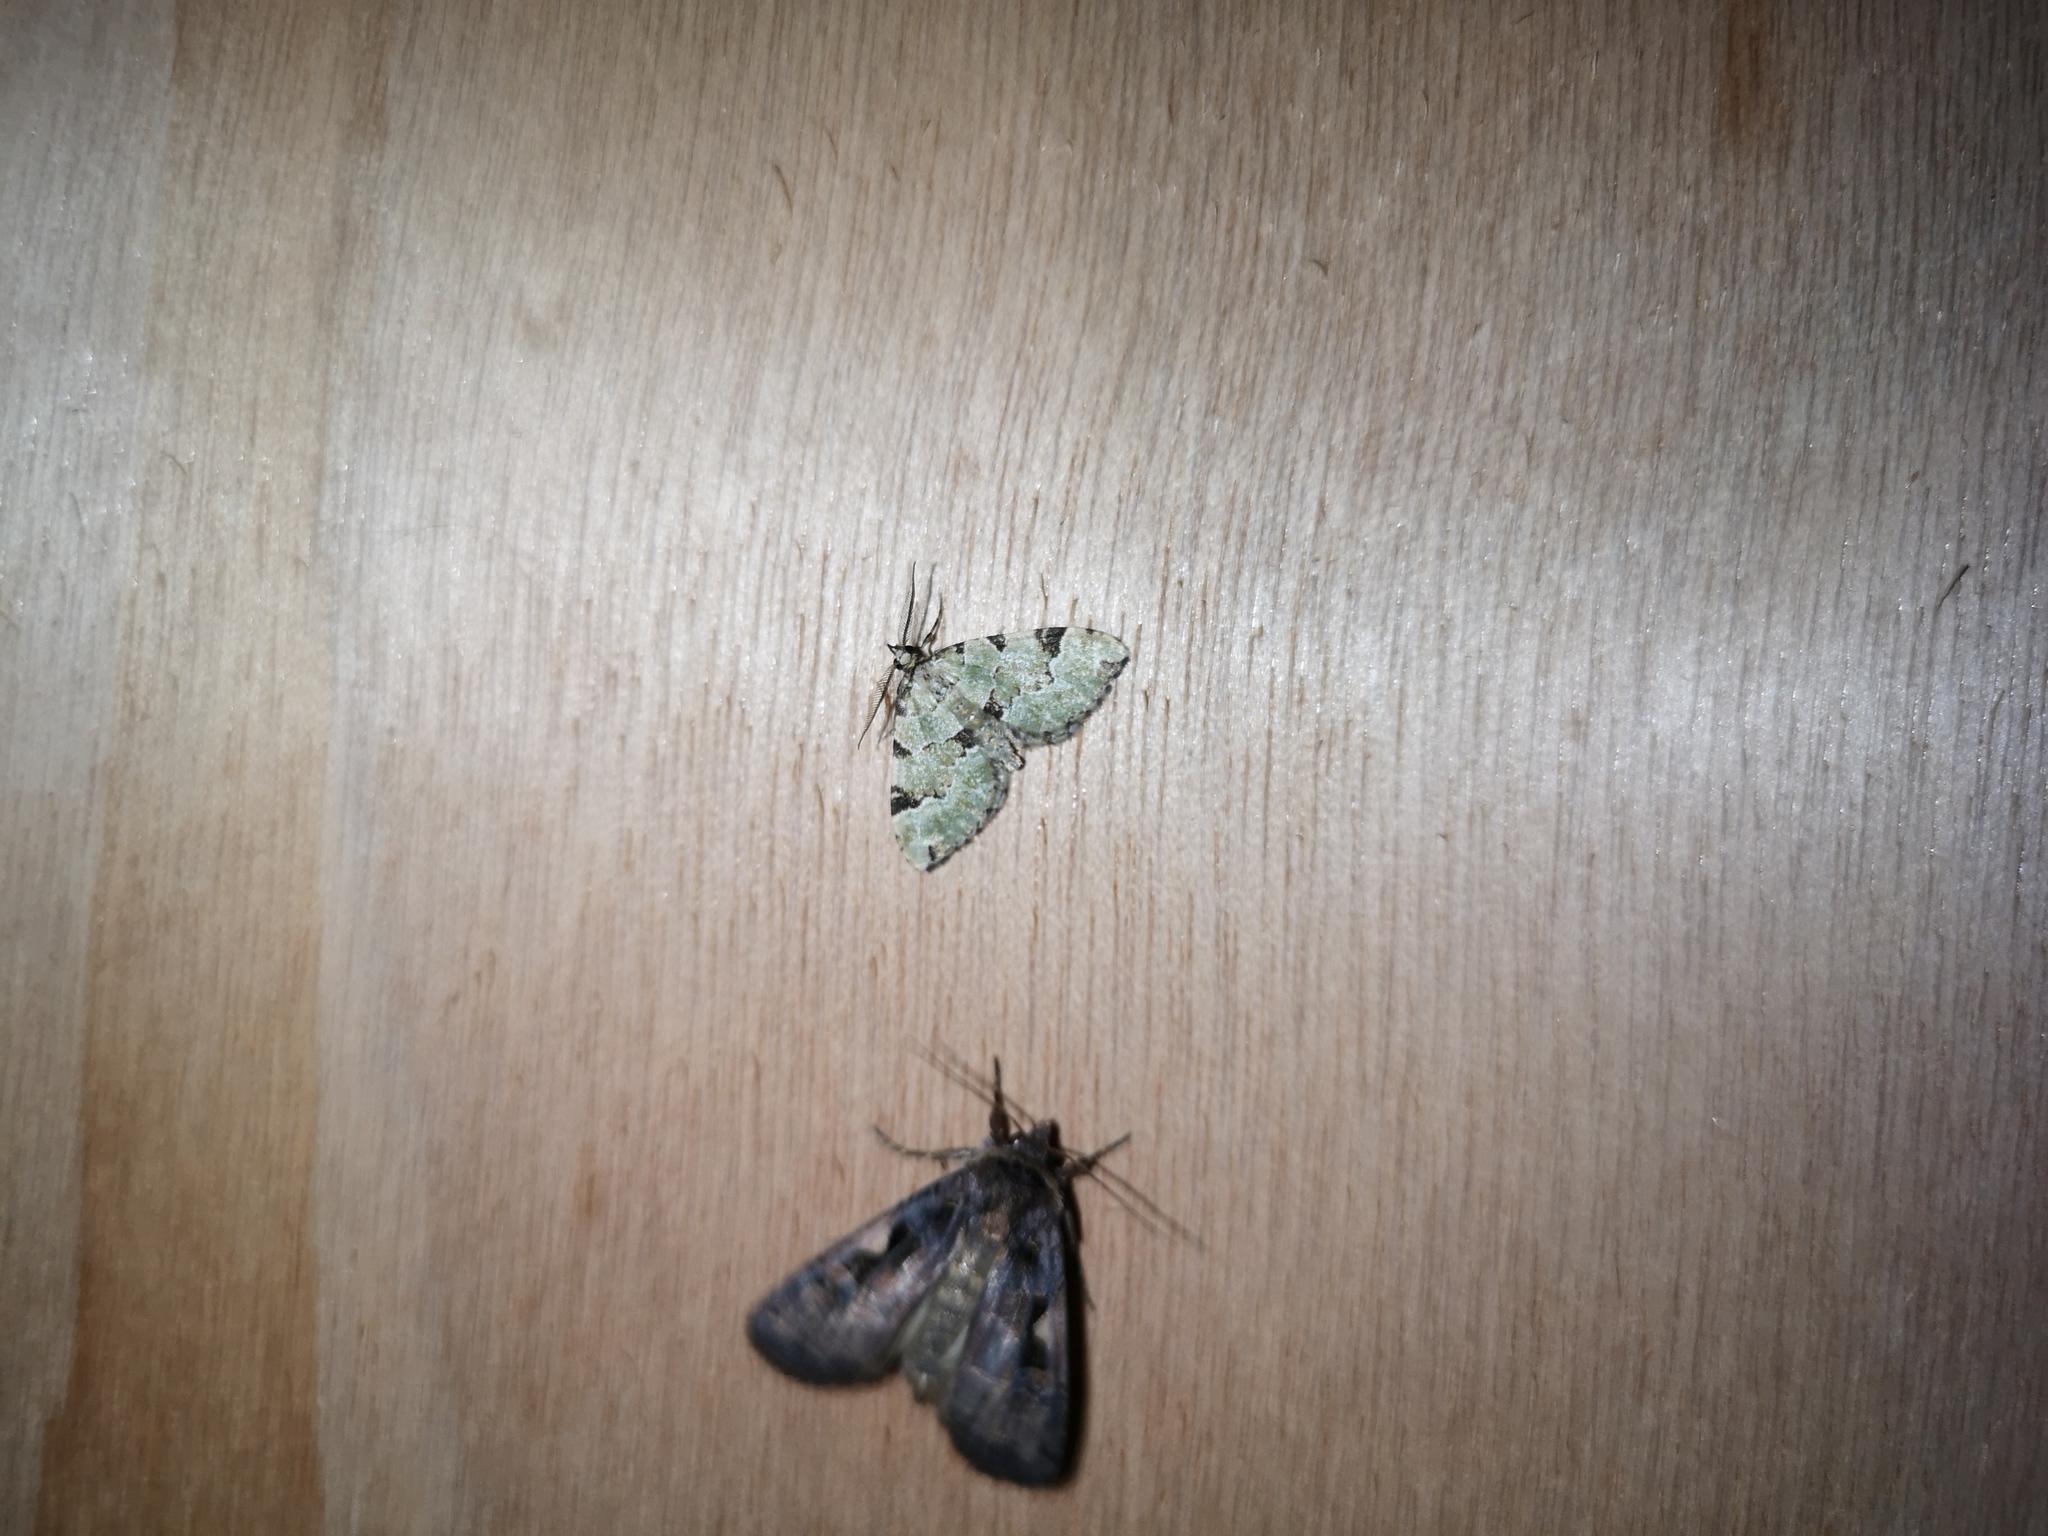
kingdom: Animalia
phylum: Arthropoda
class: Insecta
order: Lepidoptera
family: Geometridae
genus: Colostygia
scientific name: Colostygia pectinataria
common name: Green carpet
